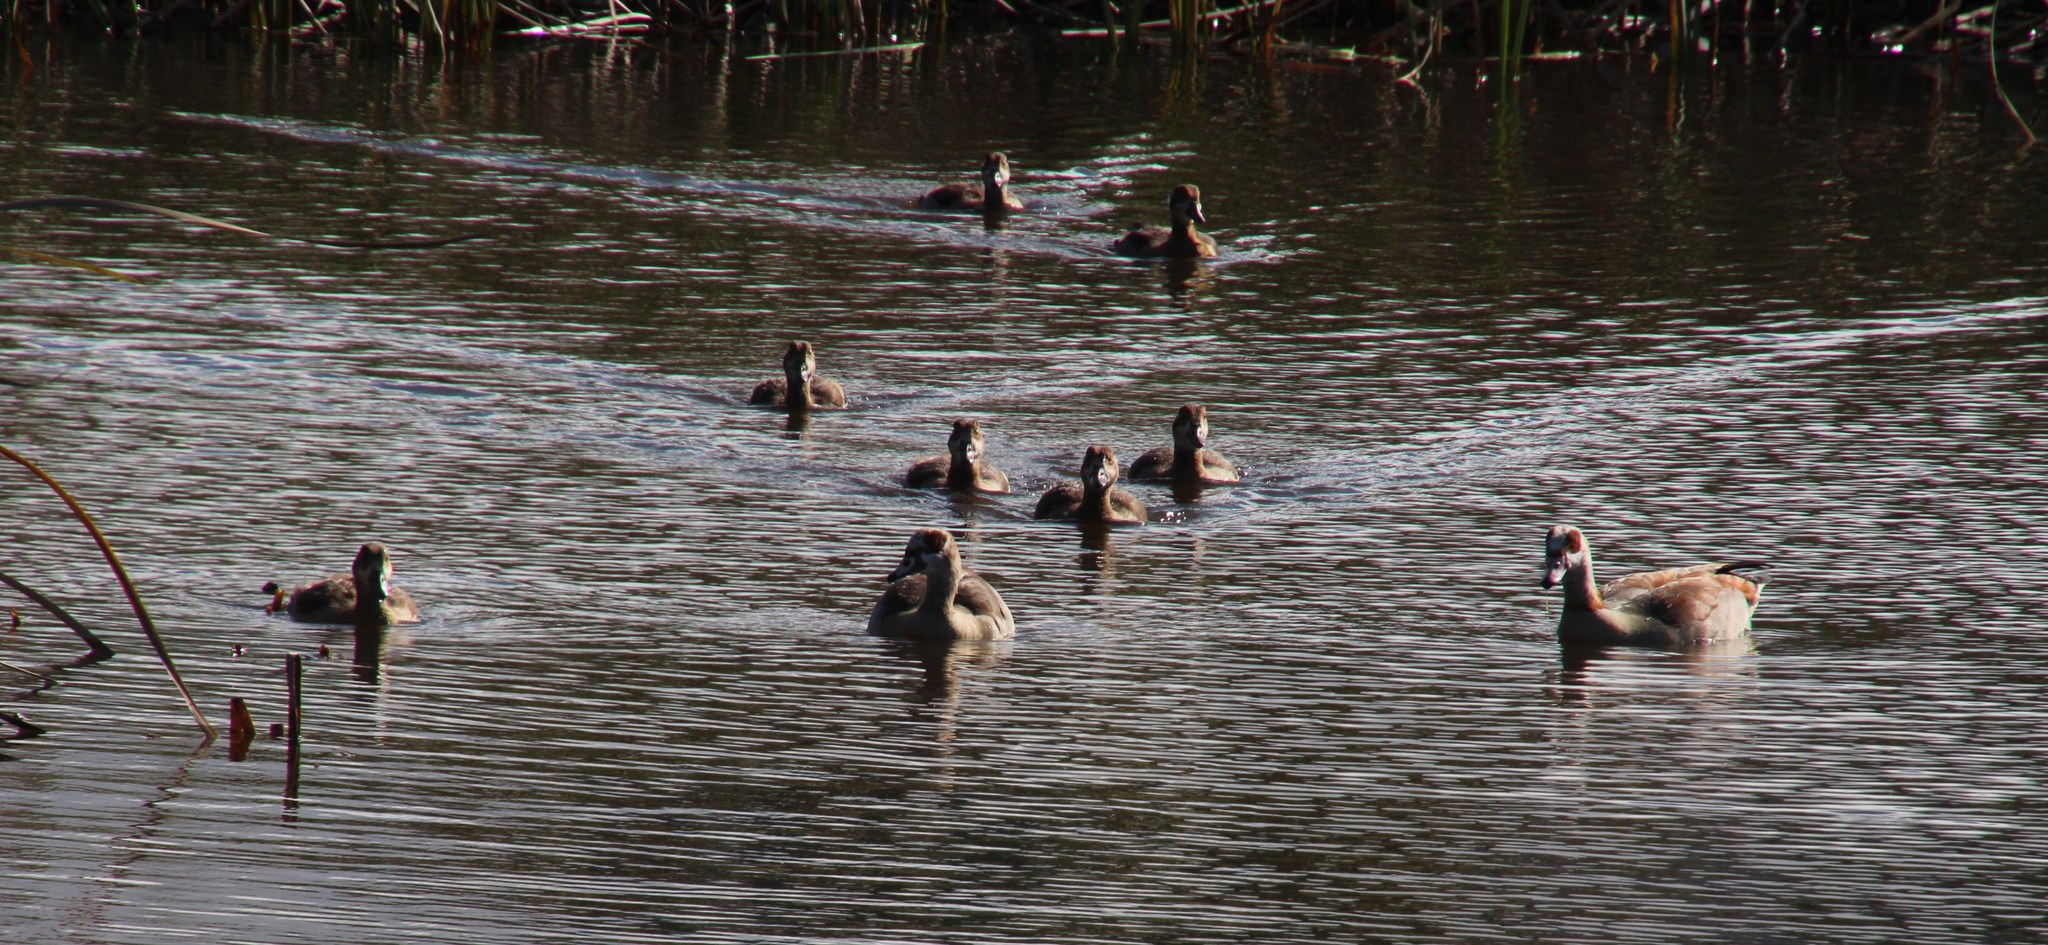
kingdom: Animalia
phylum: Chordata
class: Aves
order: Anseriformes
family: Anatidae
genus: Alopochen
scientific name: Alopochen aegyptiaca
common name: Egyptian goose
